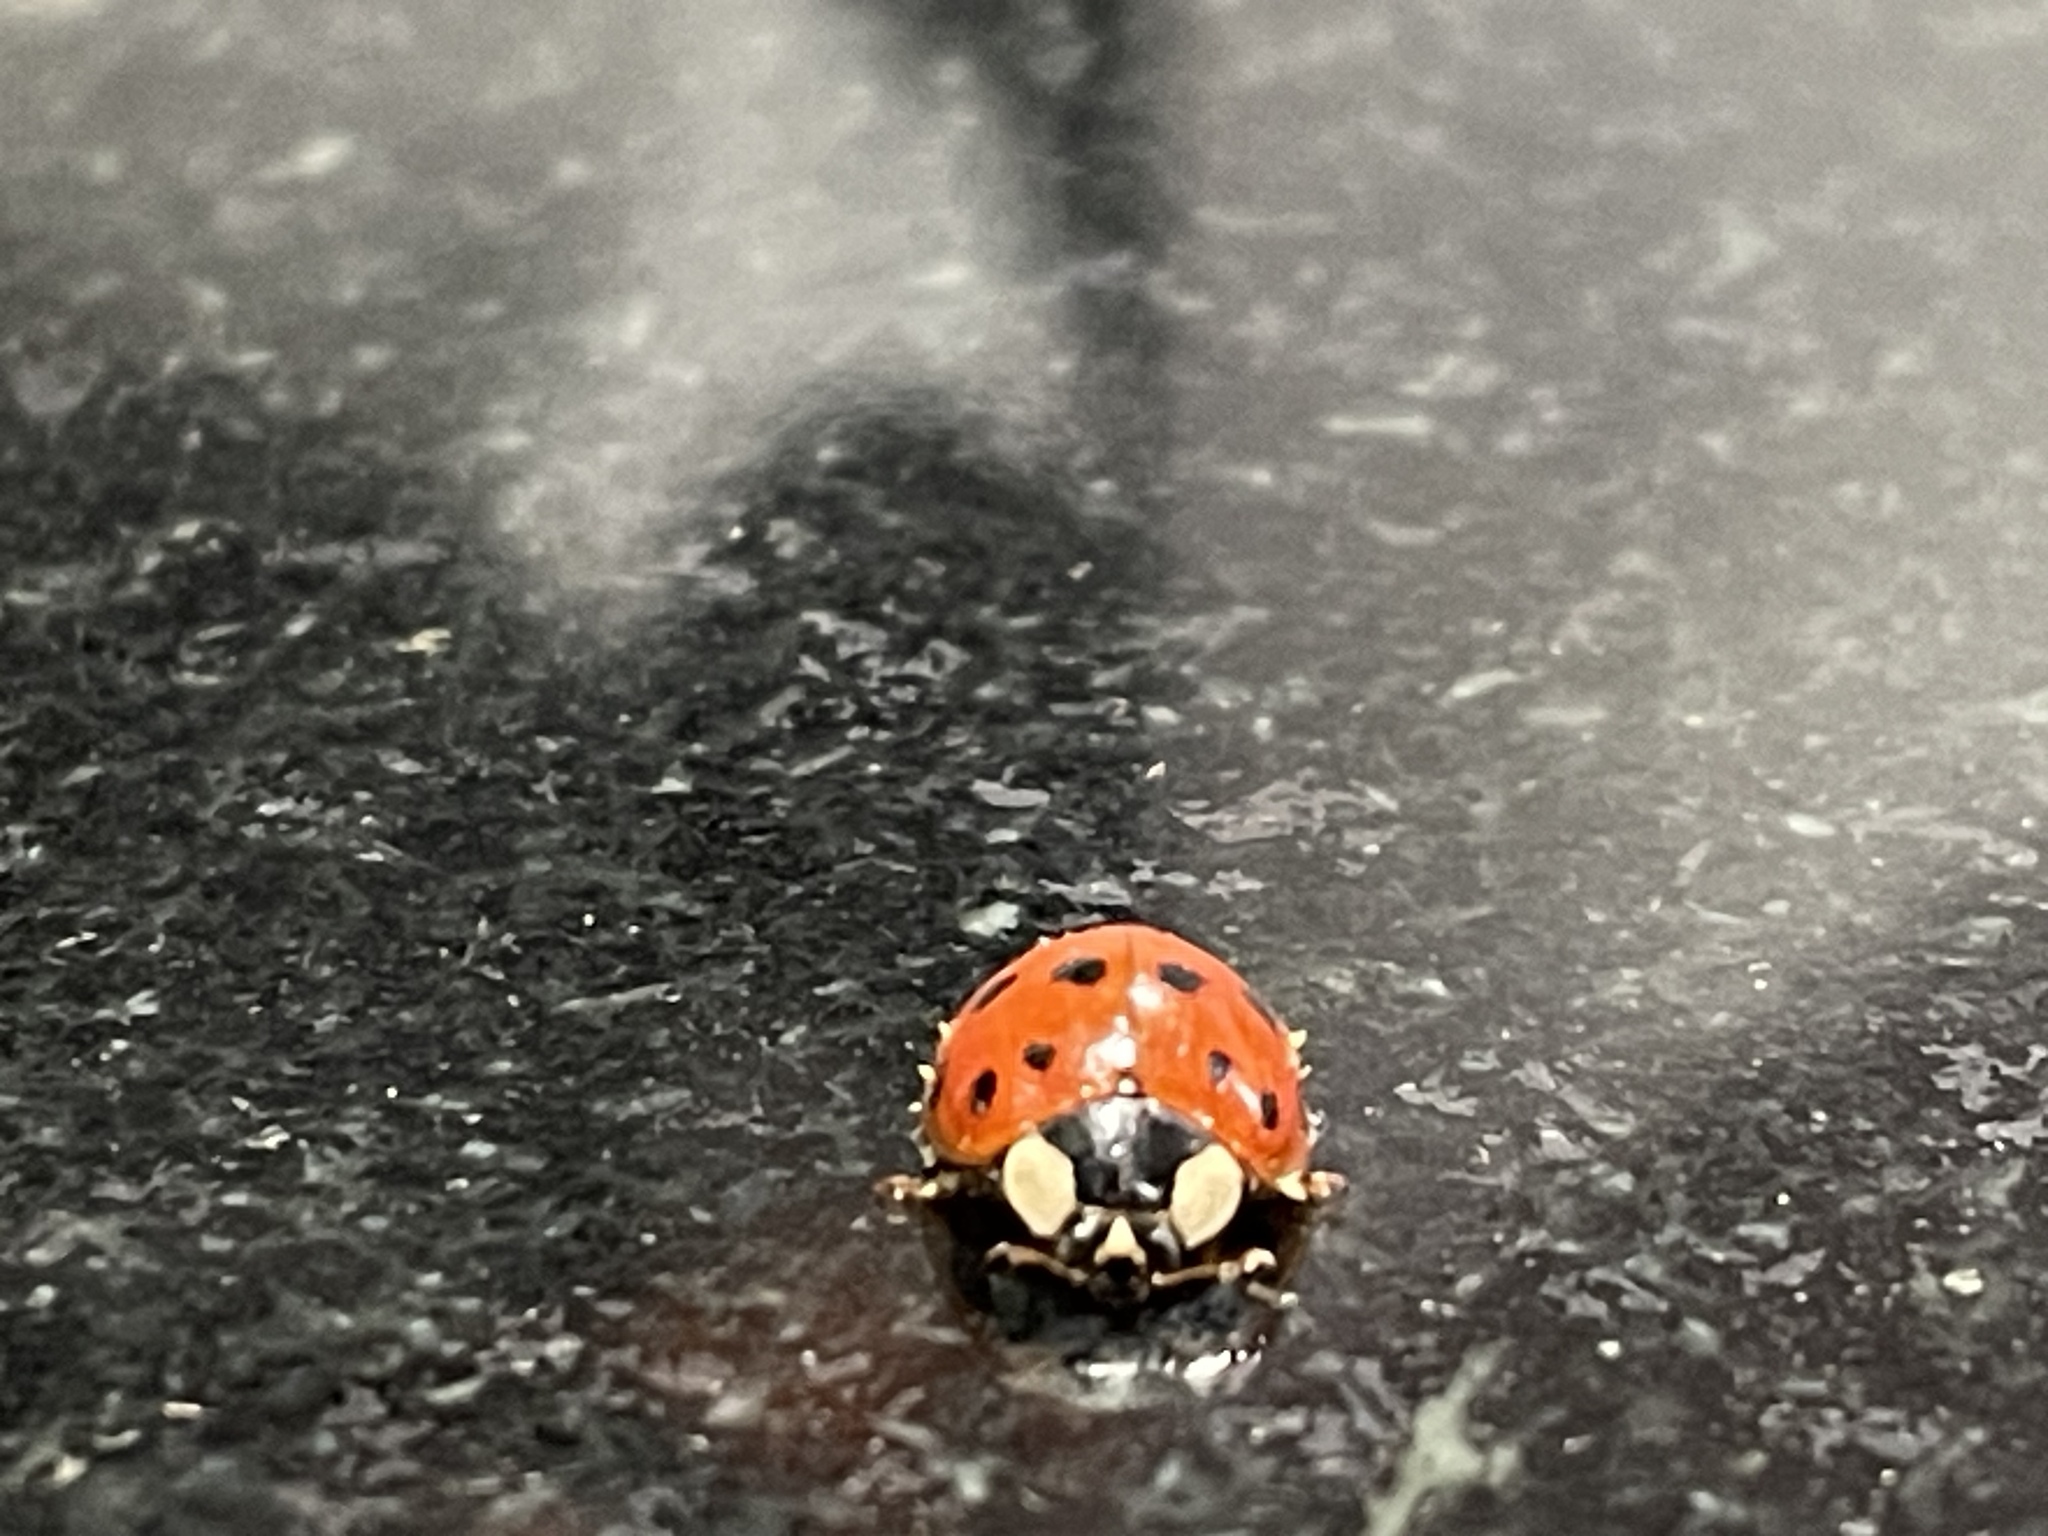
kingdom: Animalia
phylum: Arthropoda
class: Insecta
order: Coleoptera
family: Coccinellidae
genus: Harmonia
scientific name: Harmonia axyridis
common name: Harlequin ladybird
